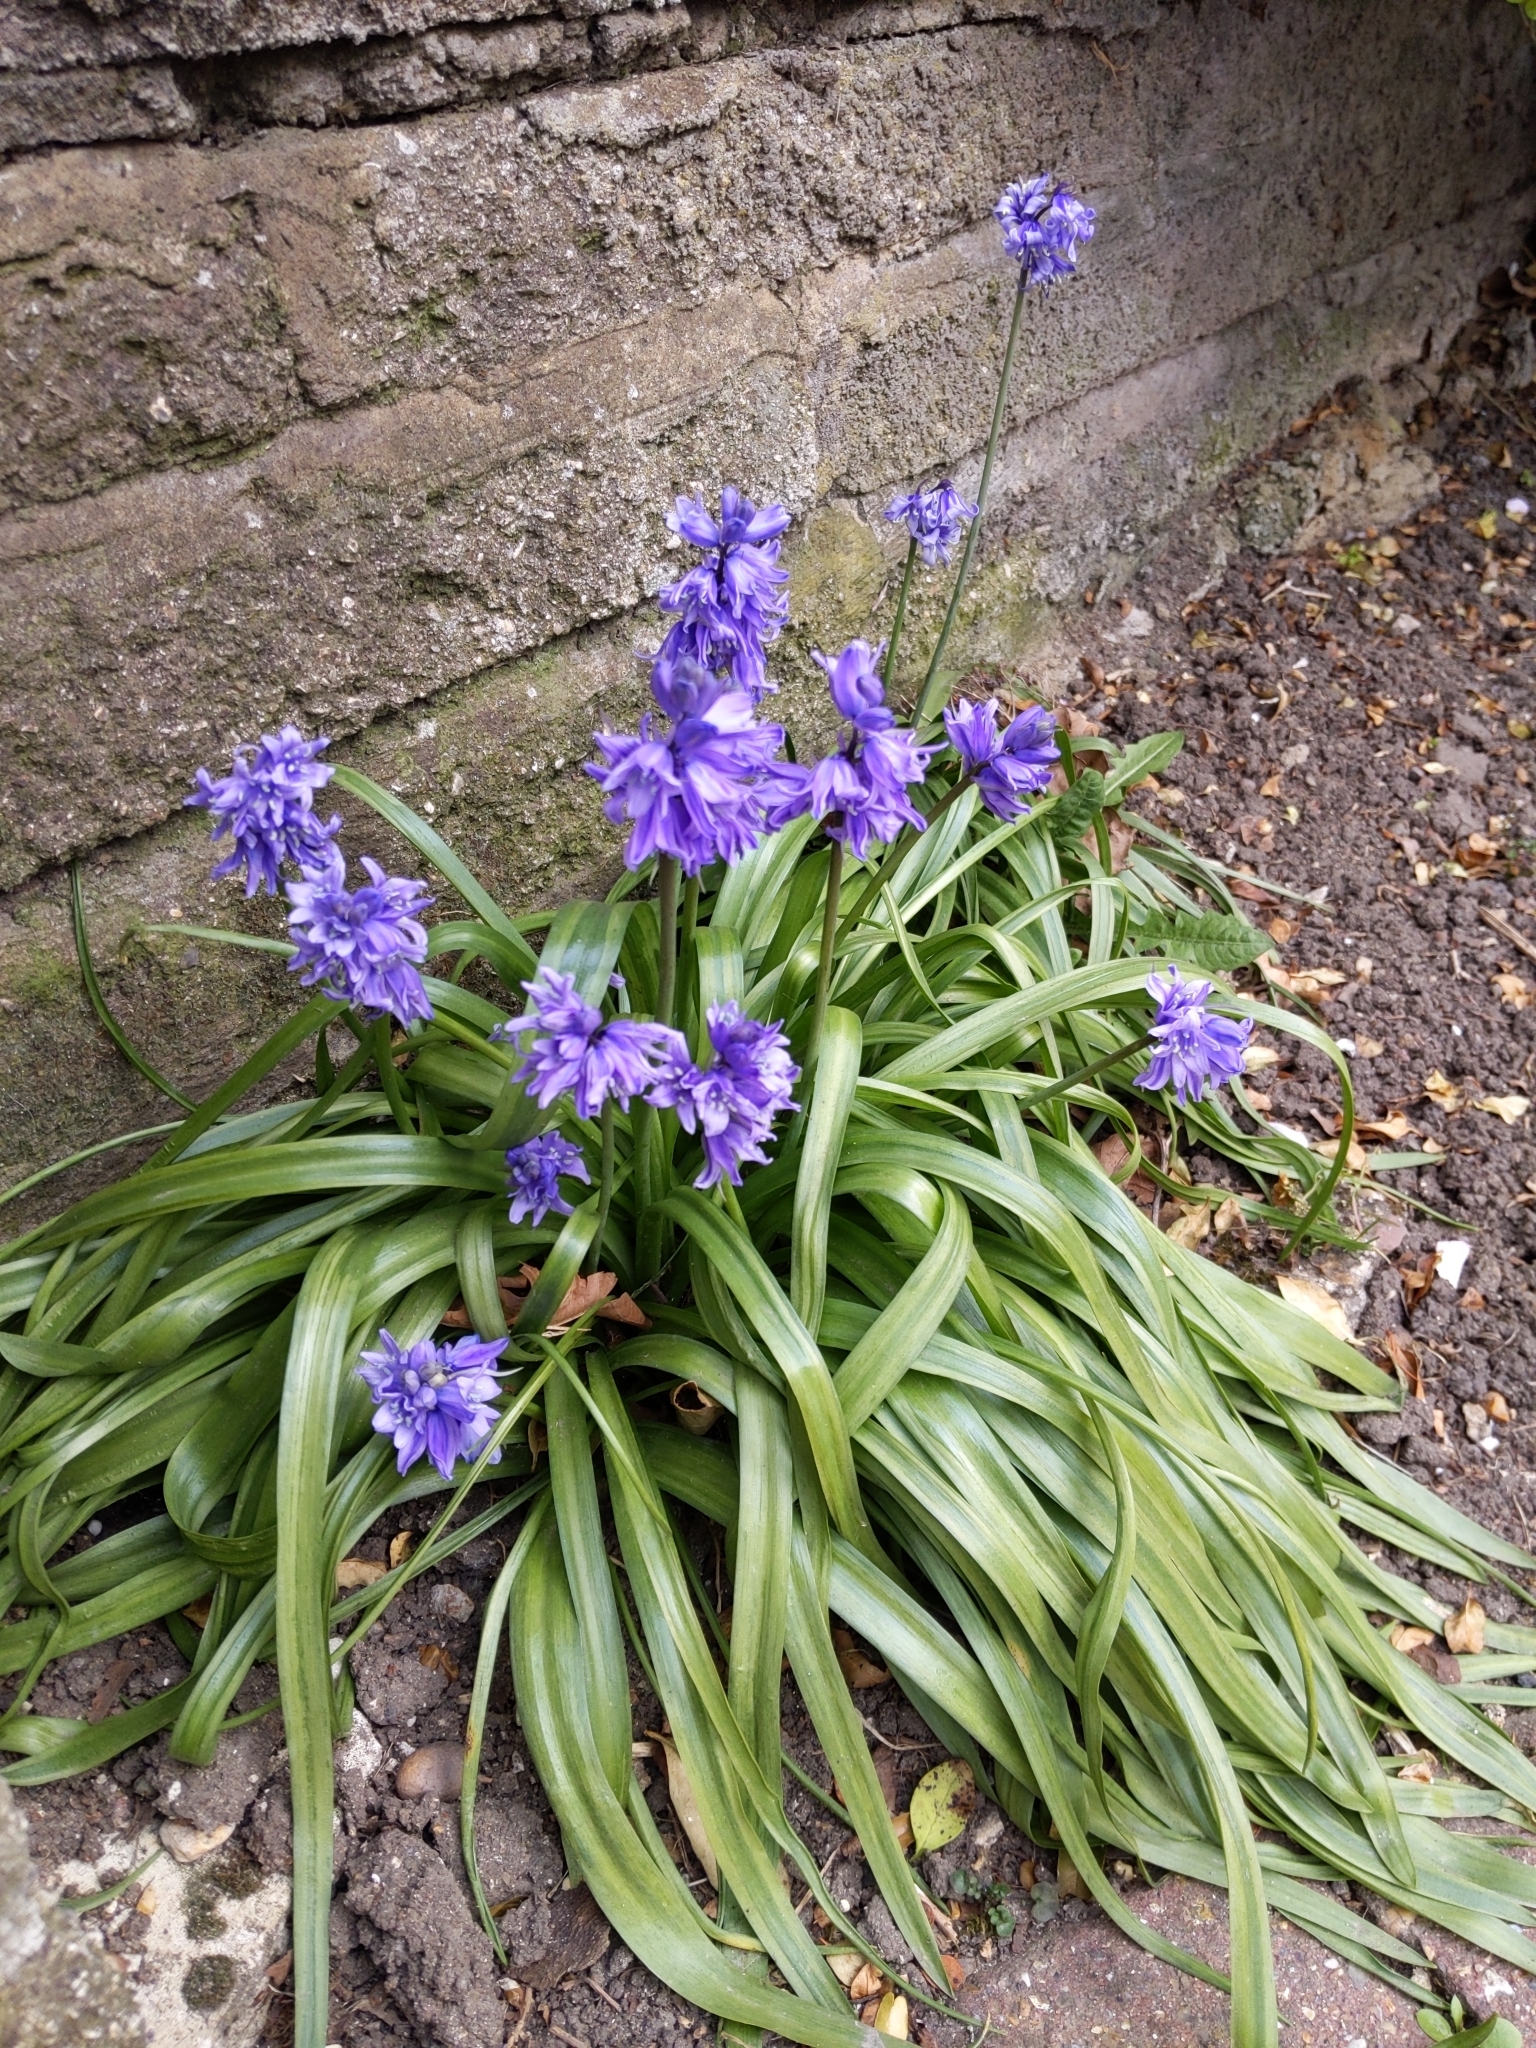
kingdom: Plantae
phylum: Tracheophyta
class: Liliopsida
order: Asparagales
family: Asparagaceae
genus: Hyacinthoides
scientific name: Hyacinthoides massartiana
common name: Hyacinthoides
